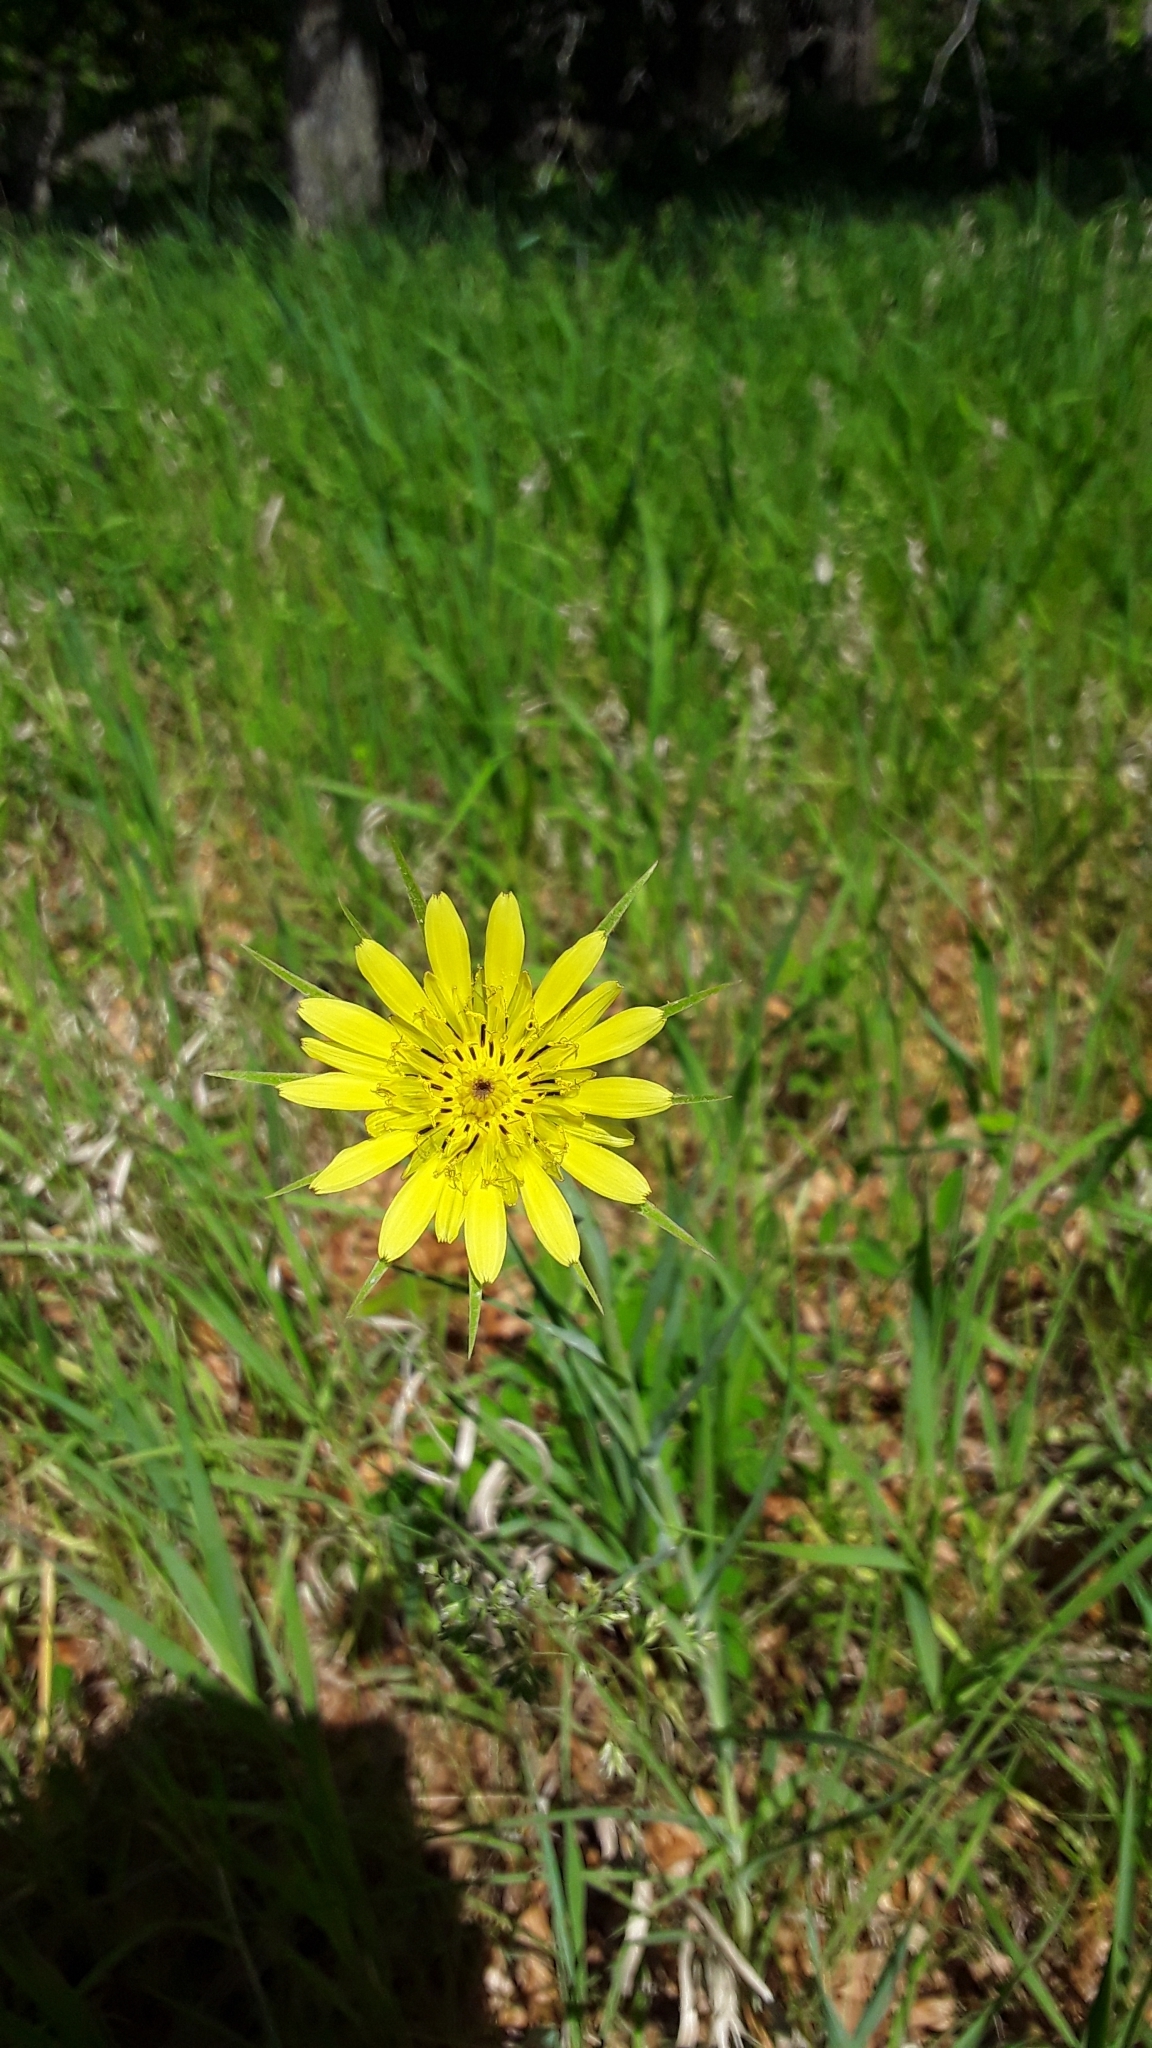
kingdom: Plantae
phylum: Tracheophyta
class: Magnoliopsida
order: Asterales
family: Asteraceae
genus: Tragopogon
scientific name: Tragopogon dubius
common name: Yellow salsify
